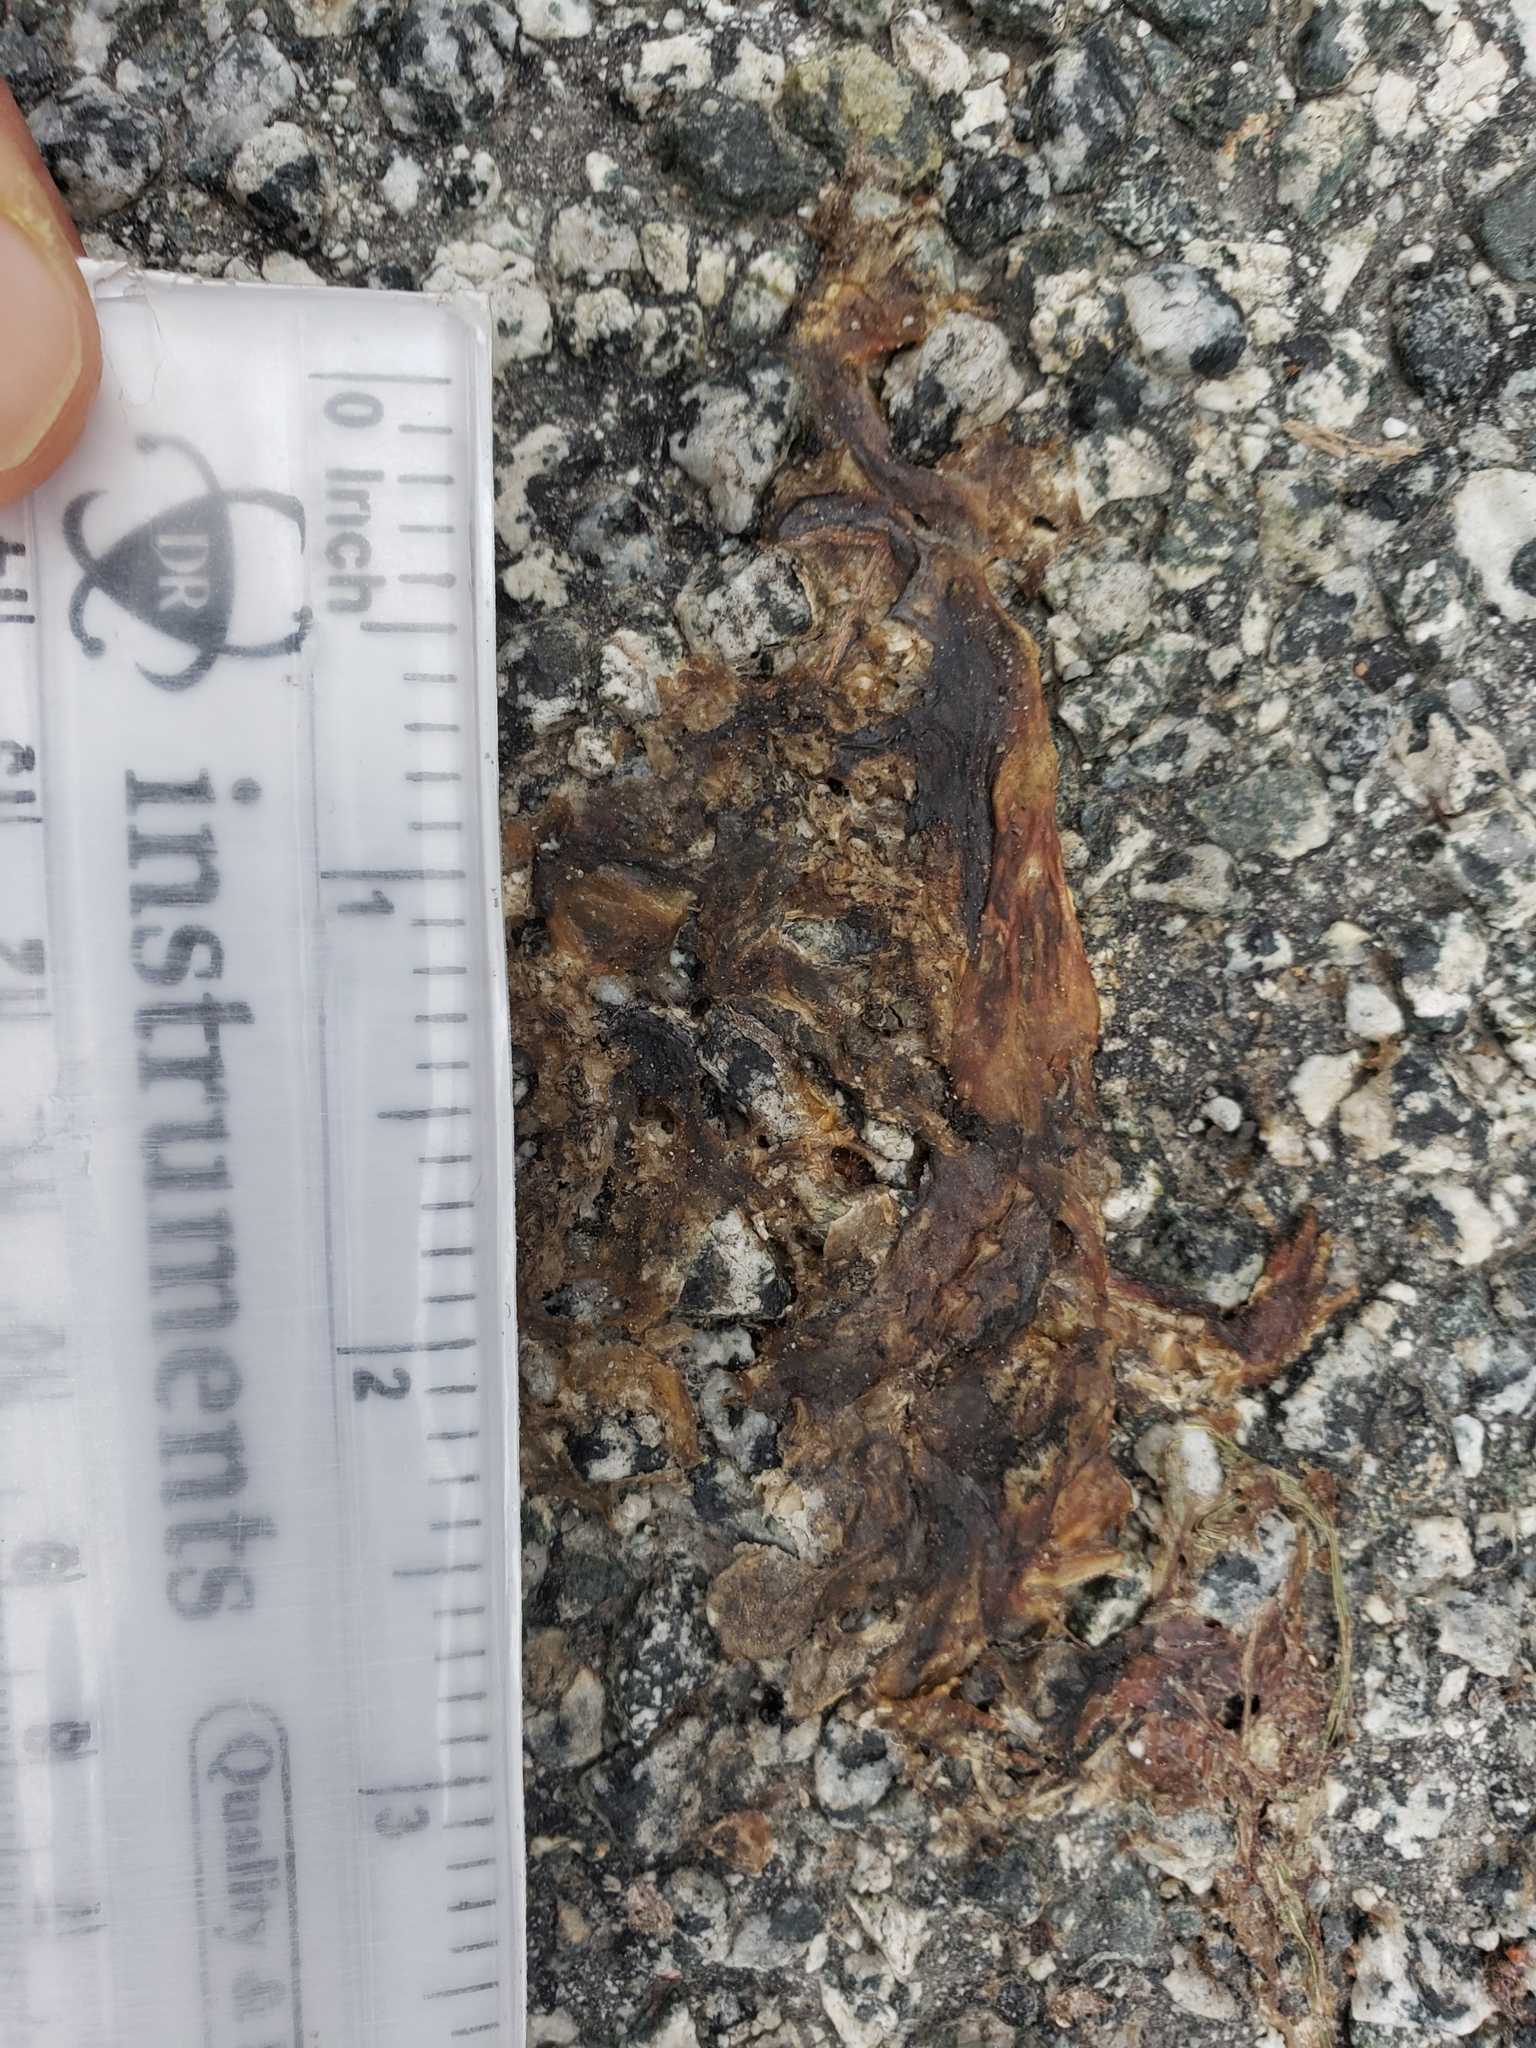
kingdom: Animalia
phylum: Chordata
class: Amphibia
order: Caudata
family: Salamandridae
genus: Taricha
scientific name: Taricha
